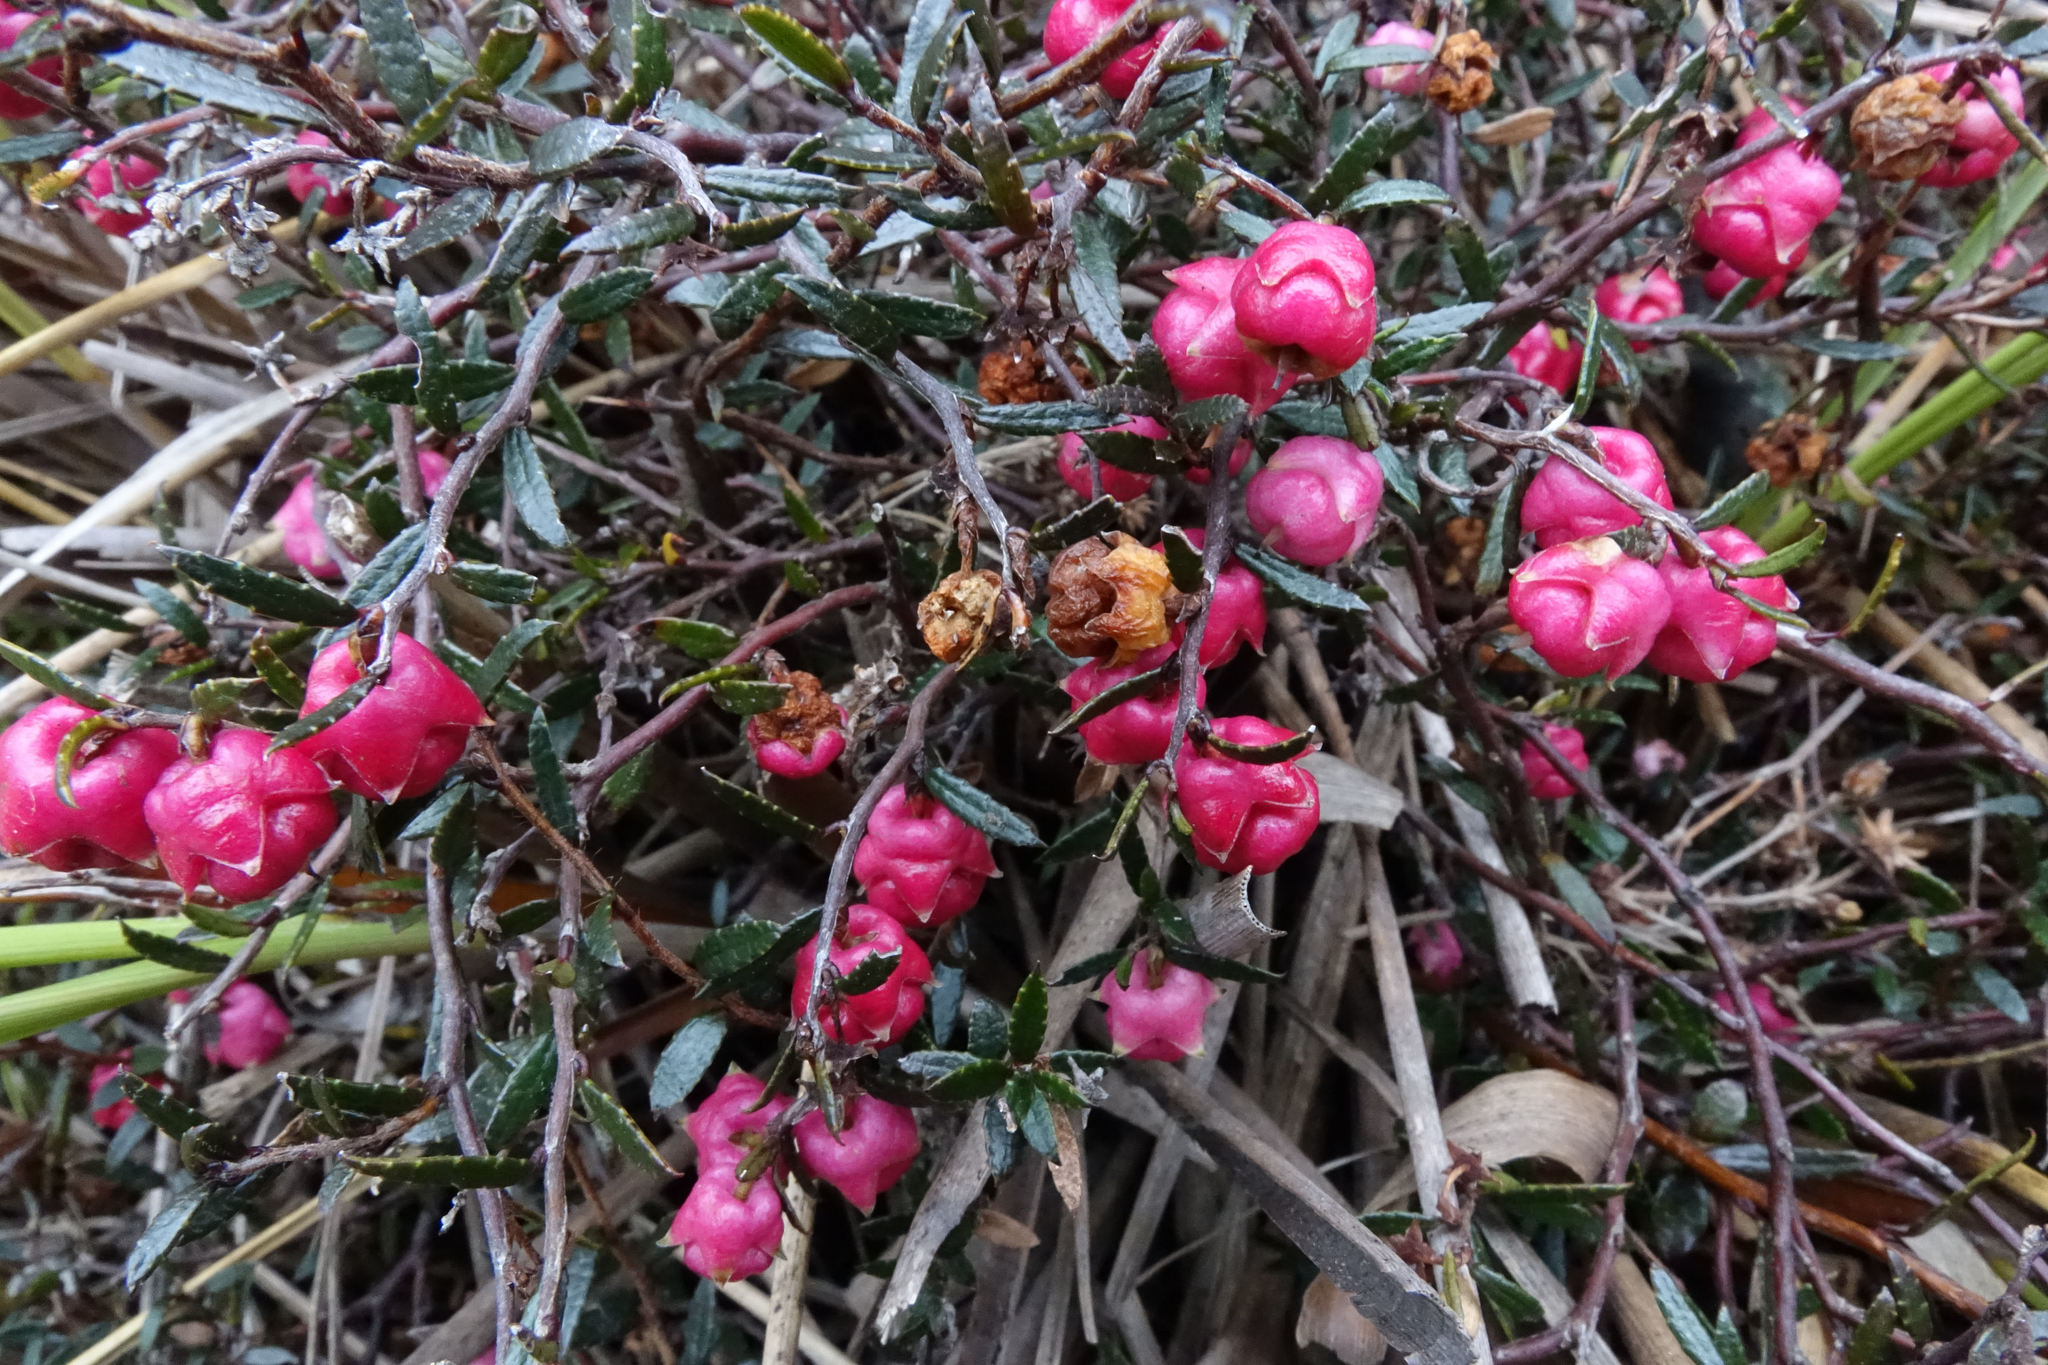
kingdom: Plantae
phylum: Tracheophyta
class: Magnoliopsida
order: Ericales
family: Ericaceae
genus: Gaultheria
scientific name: Gaultheria macrostigma
